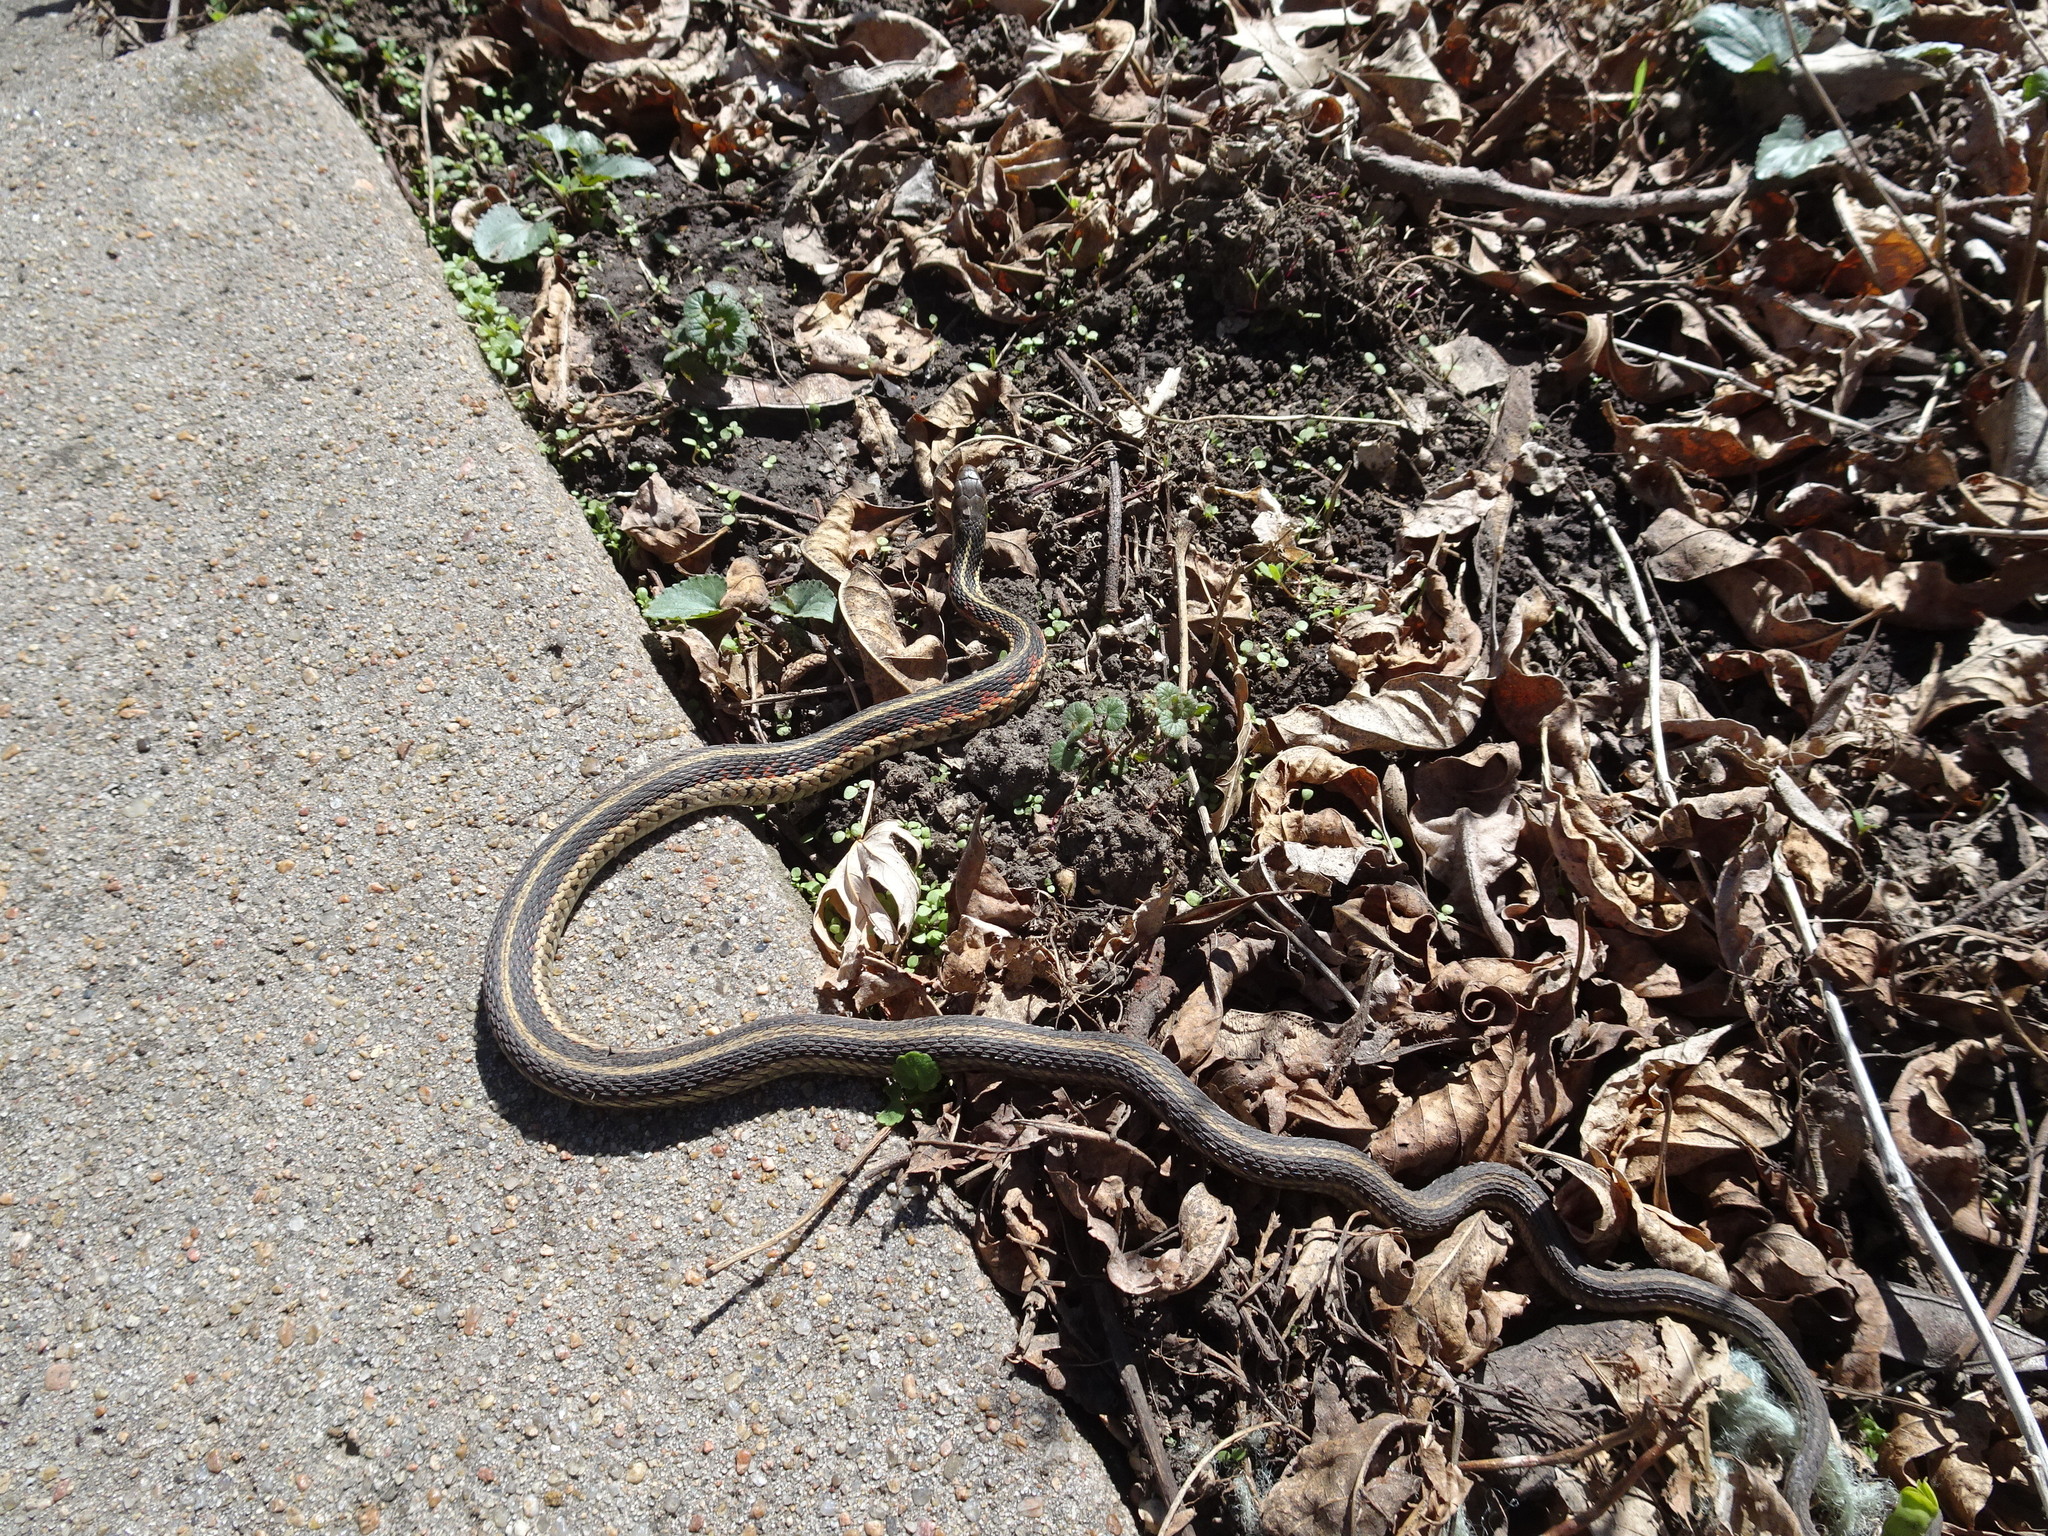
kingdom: Animalia
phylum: Chordata
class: Squamata
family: Colubridae
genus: Thamnophis
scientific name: Thamnophis sirtalis
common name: Common garter snake
